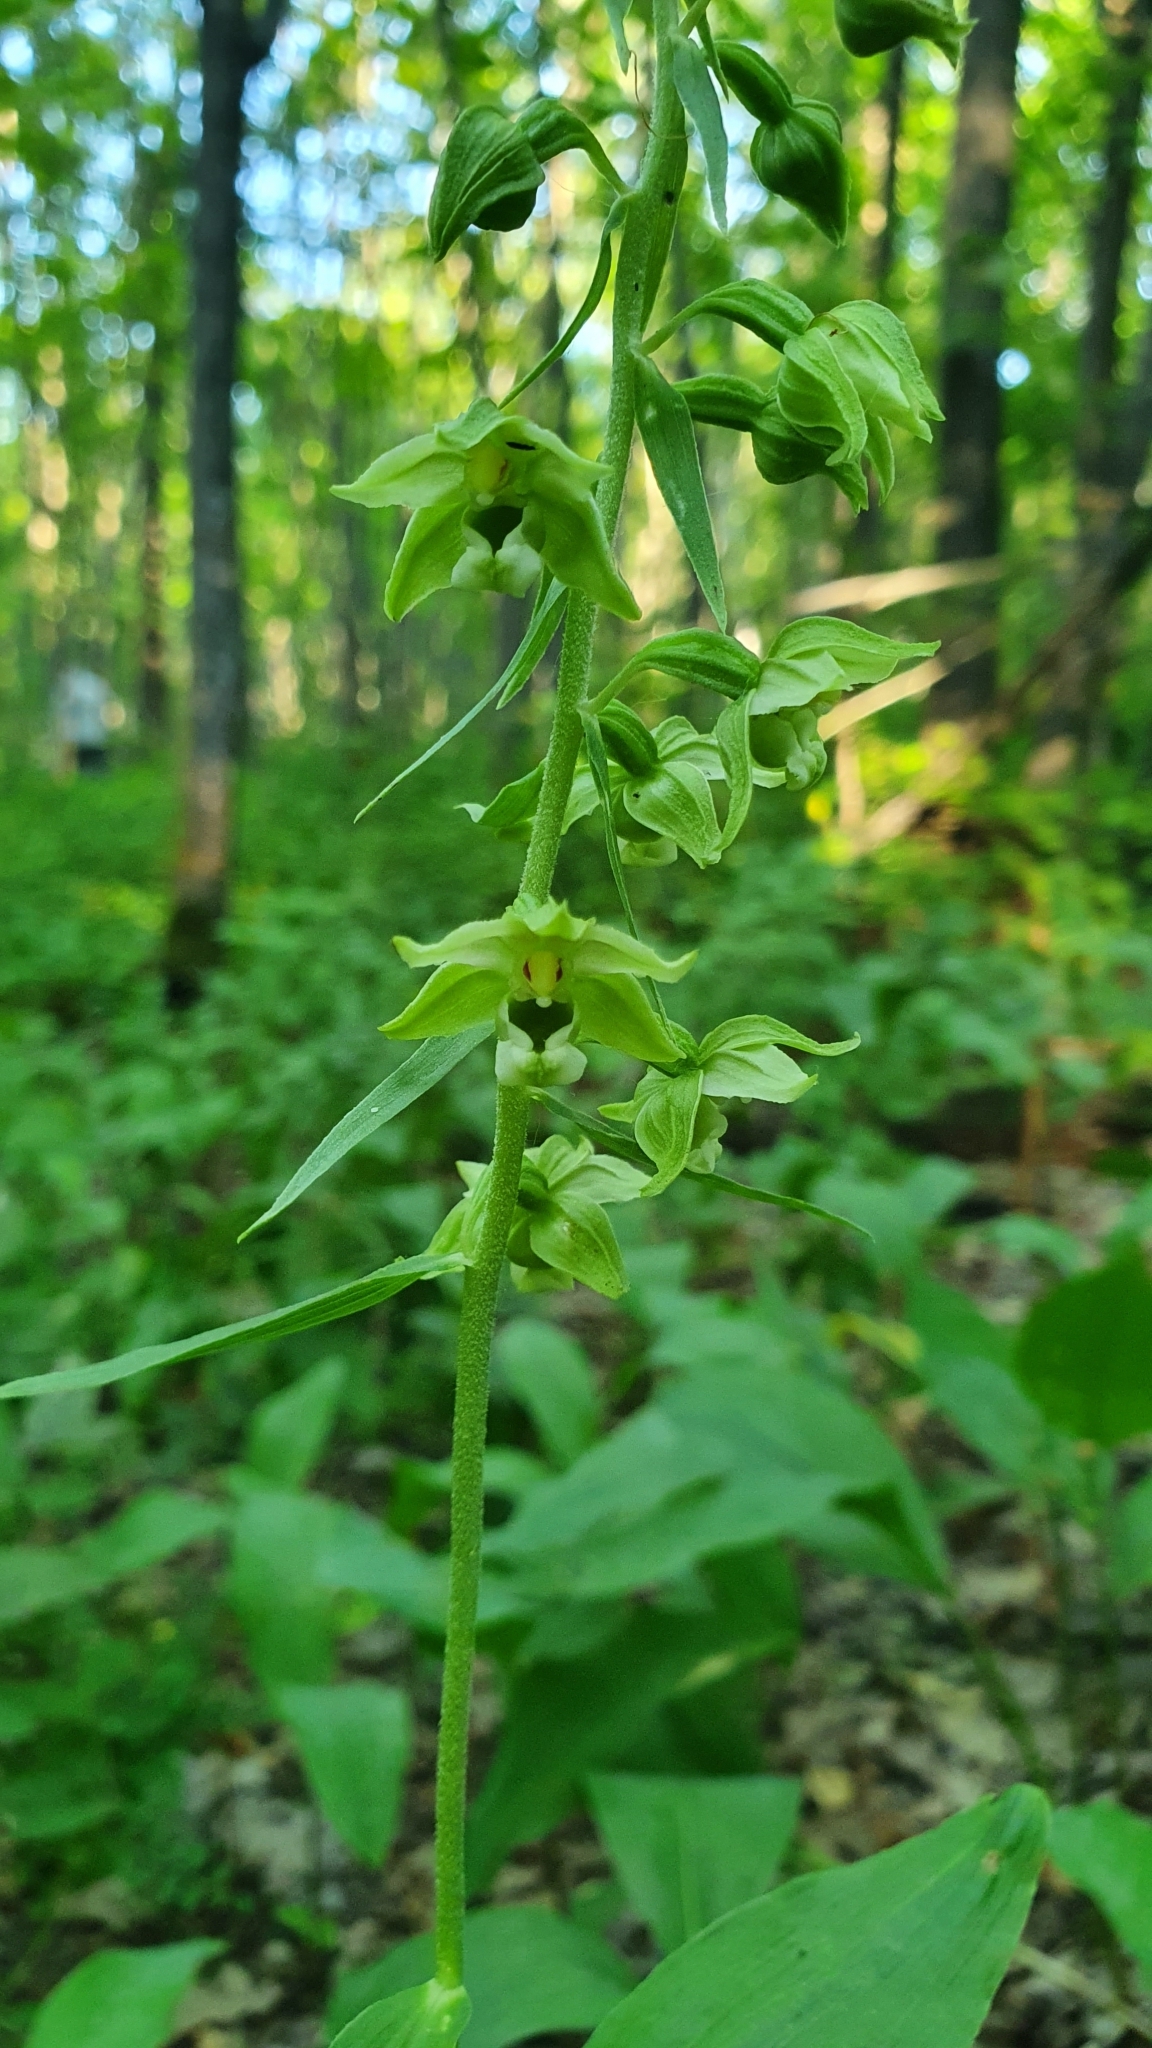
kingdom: Plantae
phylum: Tracheophyta
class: Liliopsida
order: Asparagales
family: Orchidaceae
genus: Epipactis
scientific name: Epipactis helleborine
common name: Broad-leaved helleborine
